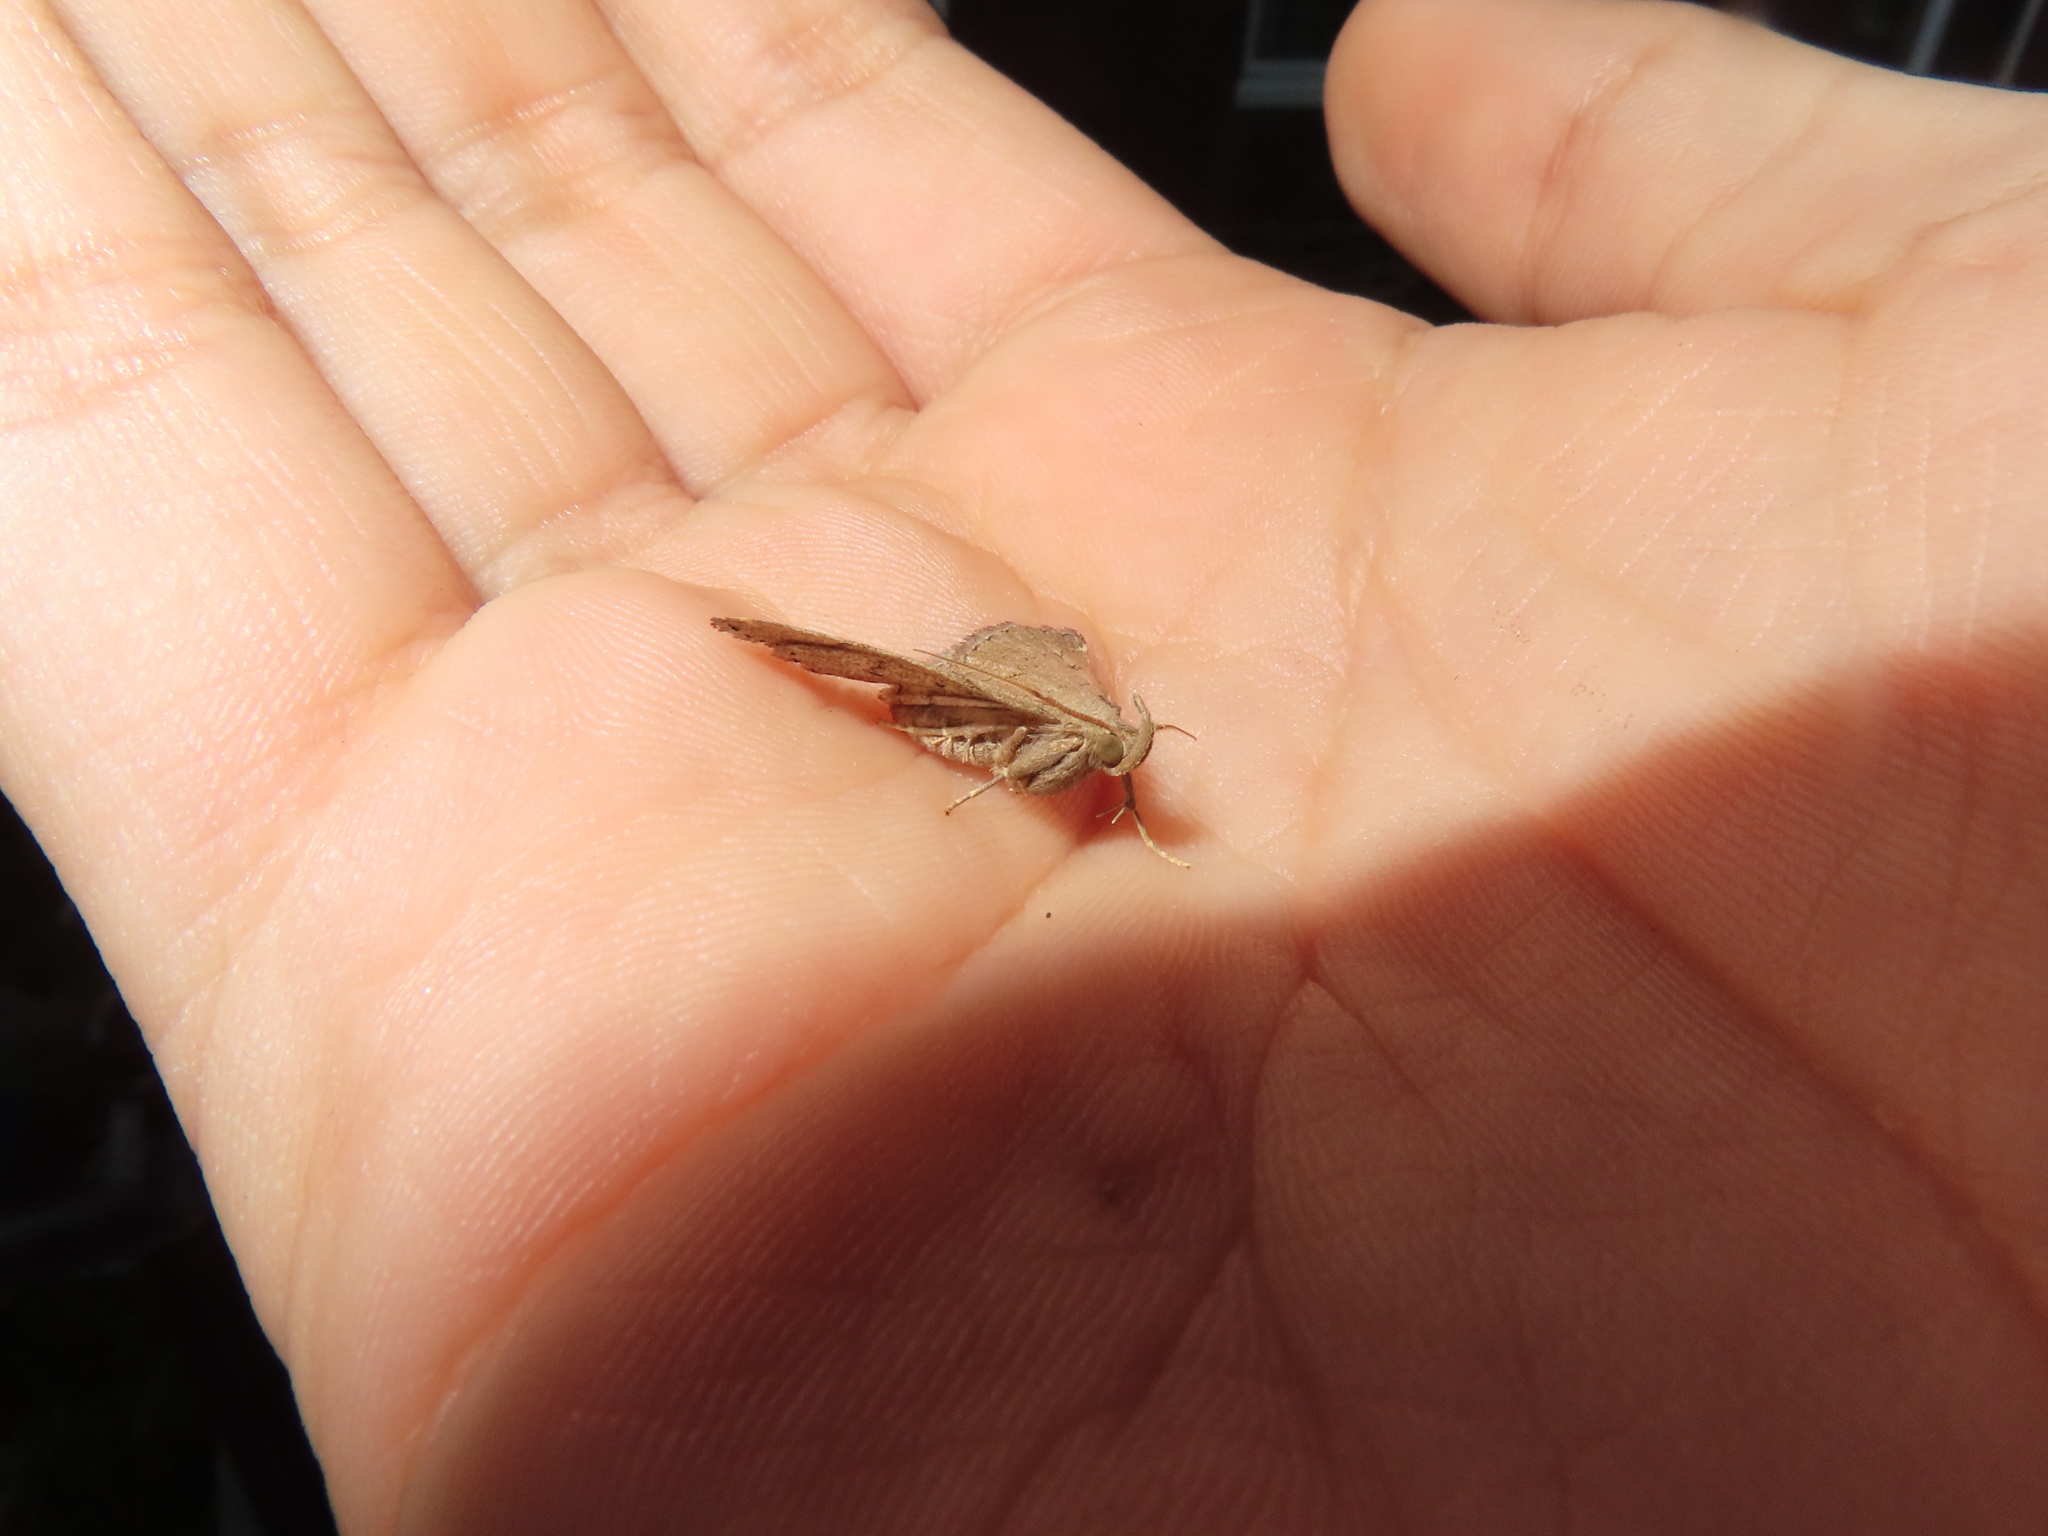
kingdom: Animalia
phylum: Arthropoda
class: Insecta
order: Lepidoptera
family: Erebidae
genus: Zanclognatha
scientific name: Zanclognatha protumnusalis
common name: Complex fan-foot
